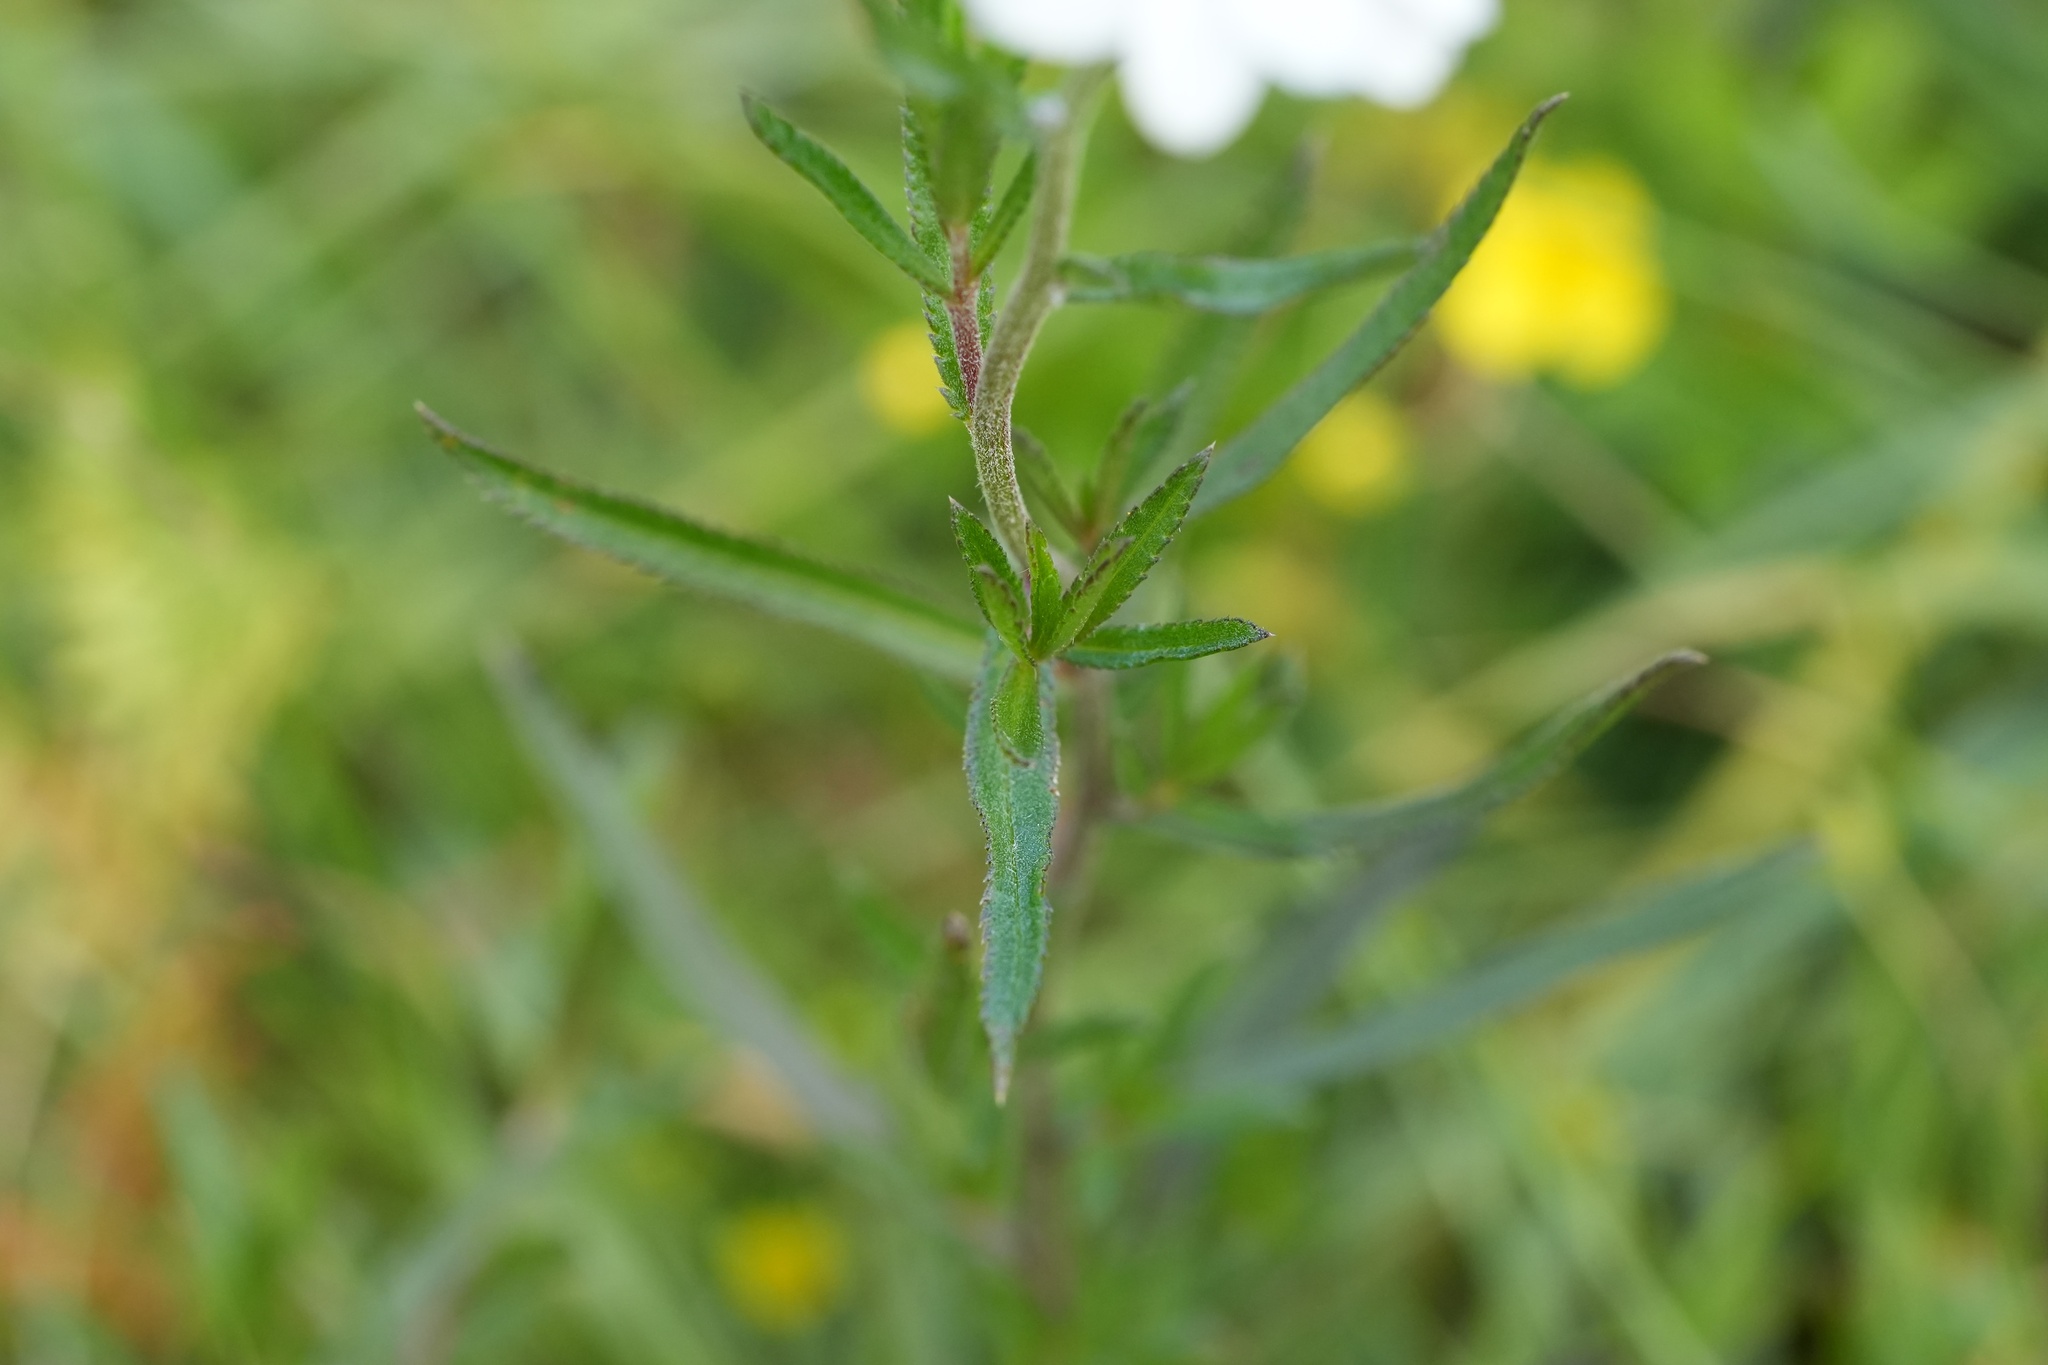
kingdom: Plantae
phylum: Tracheophyta
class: Magnoliopsida
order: Asterales
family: Asteraceae
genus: Achillea
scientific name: Achillea ptarmica
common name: Sneezeweed
